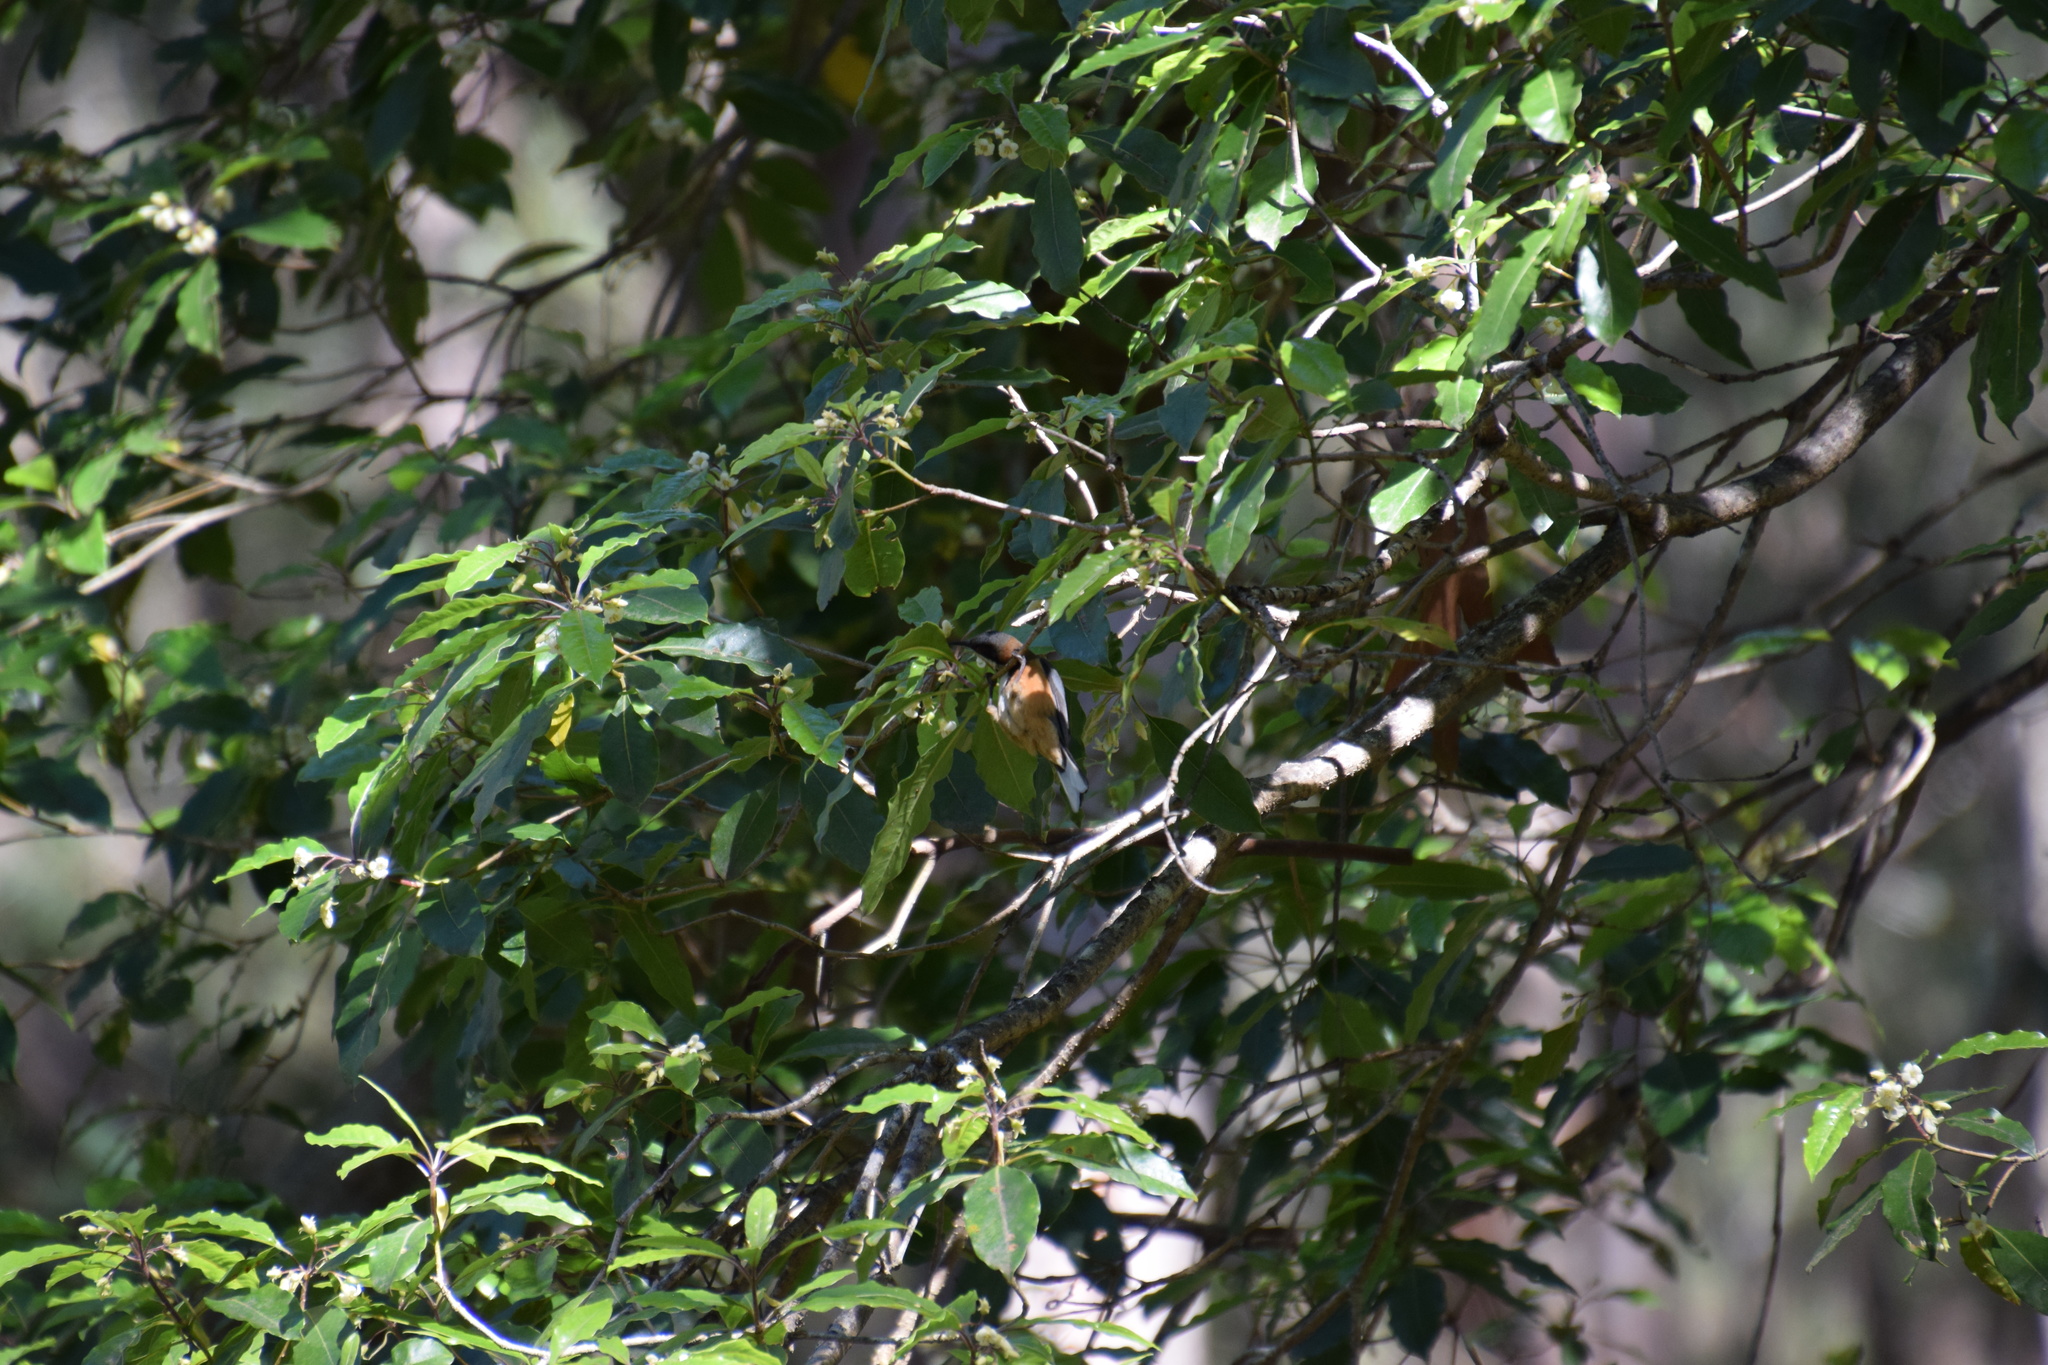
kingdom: Animalia
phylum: Chordata
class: Aves
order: Passeriformes
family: Meliphagidae
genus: Acanthorhynchus
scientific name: Acanthorhynchus tenuirostris
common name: Eastern spinebill
